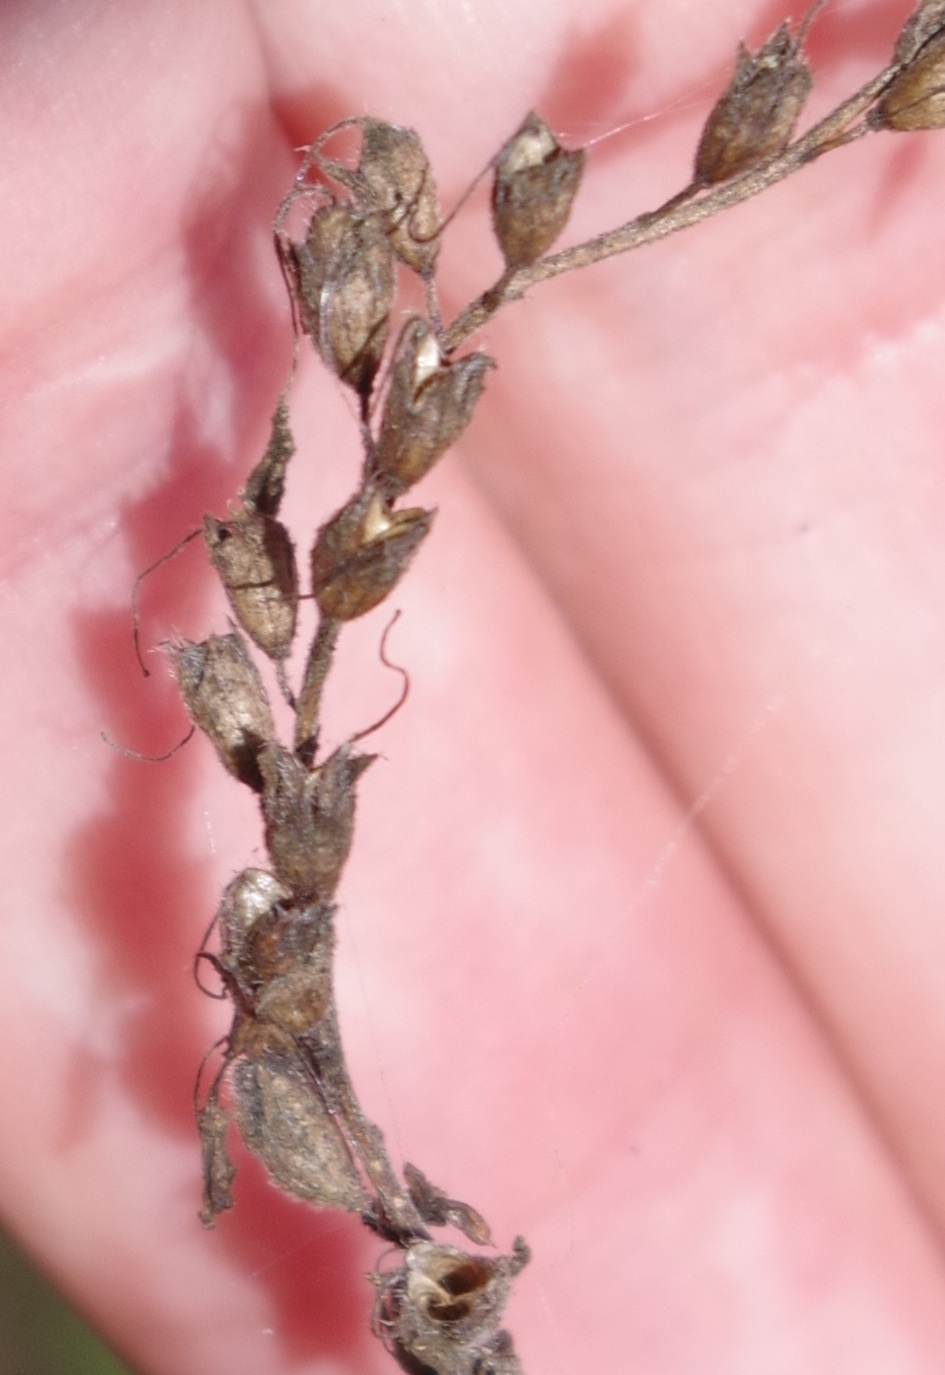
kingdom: Plantae
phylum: Tracheophyta
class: Magnoliopsida
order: Lamiales
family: Orobanchaceae
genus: Odontites
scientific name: Odontites luteus
